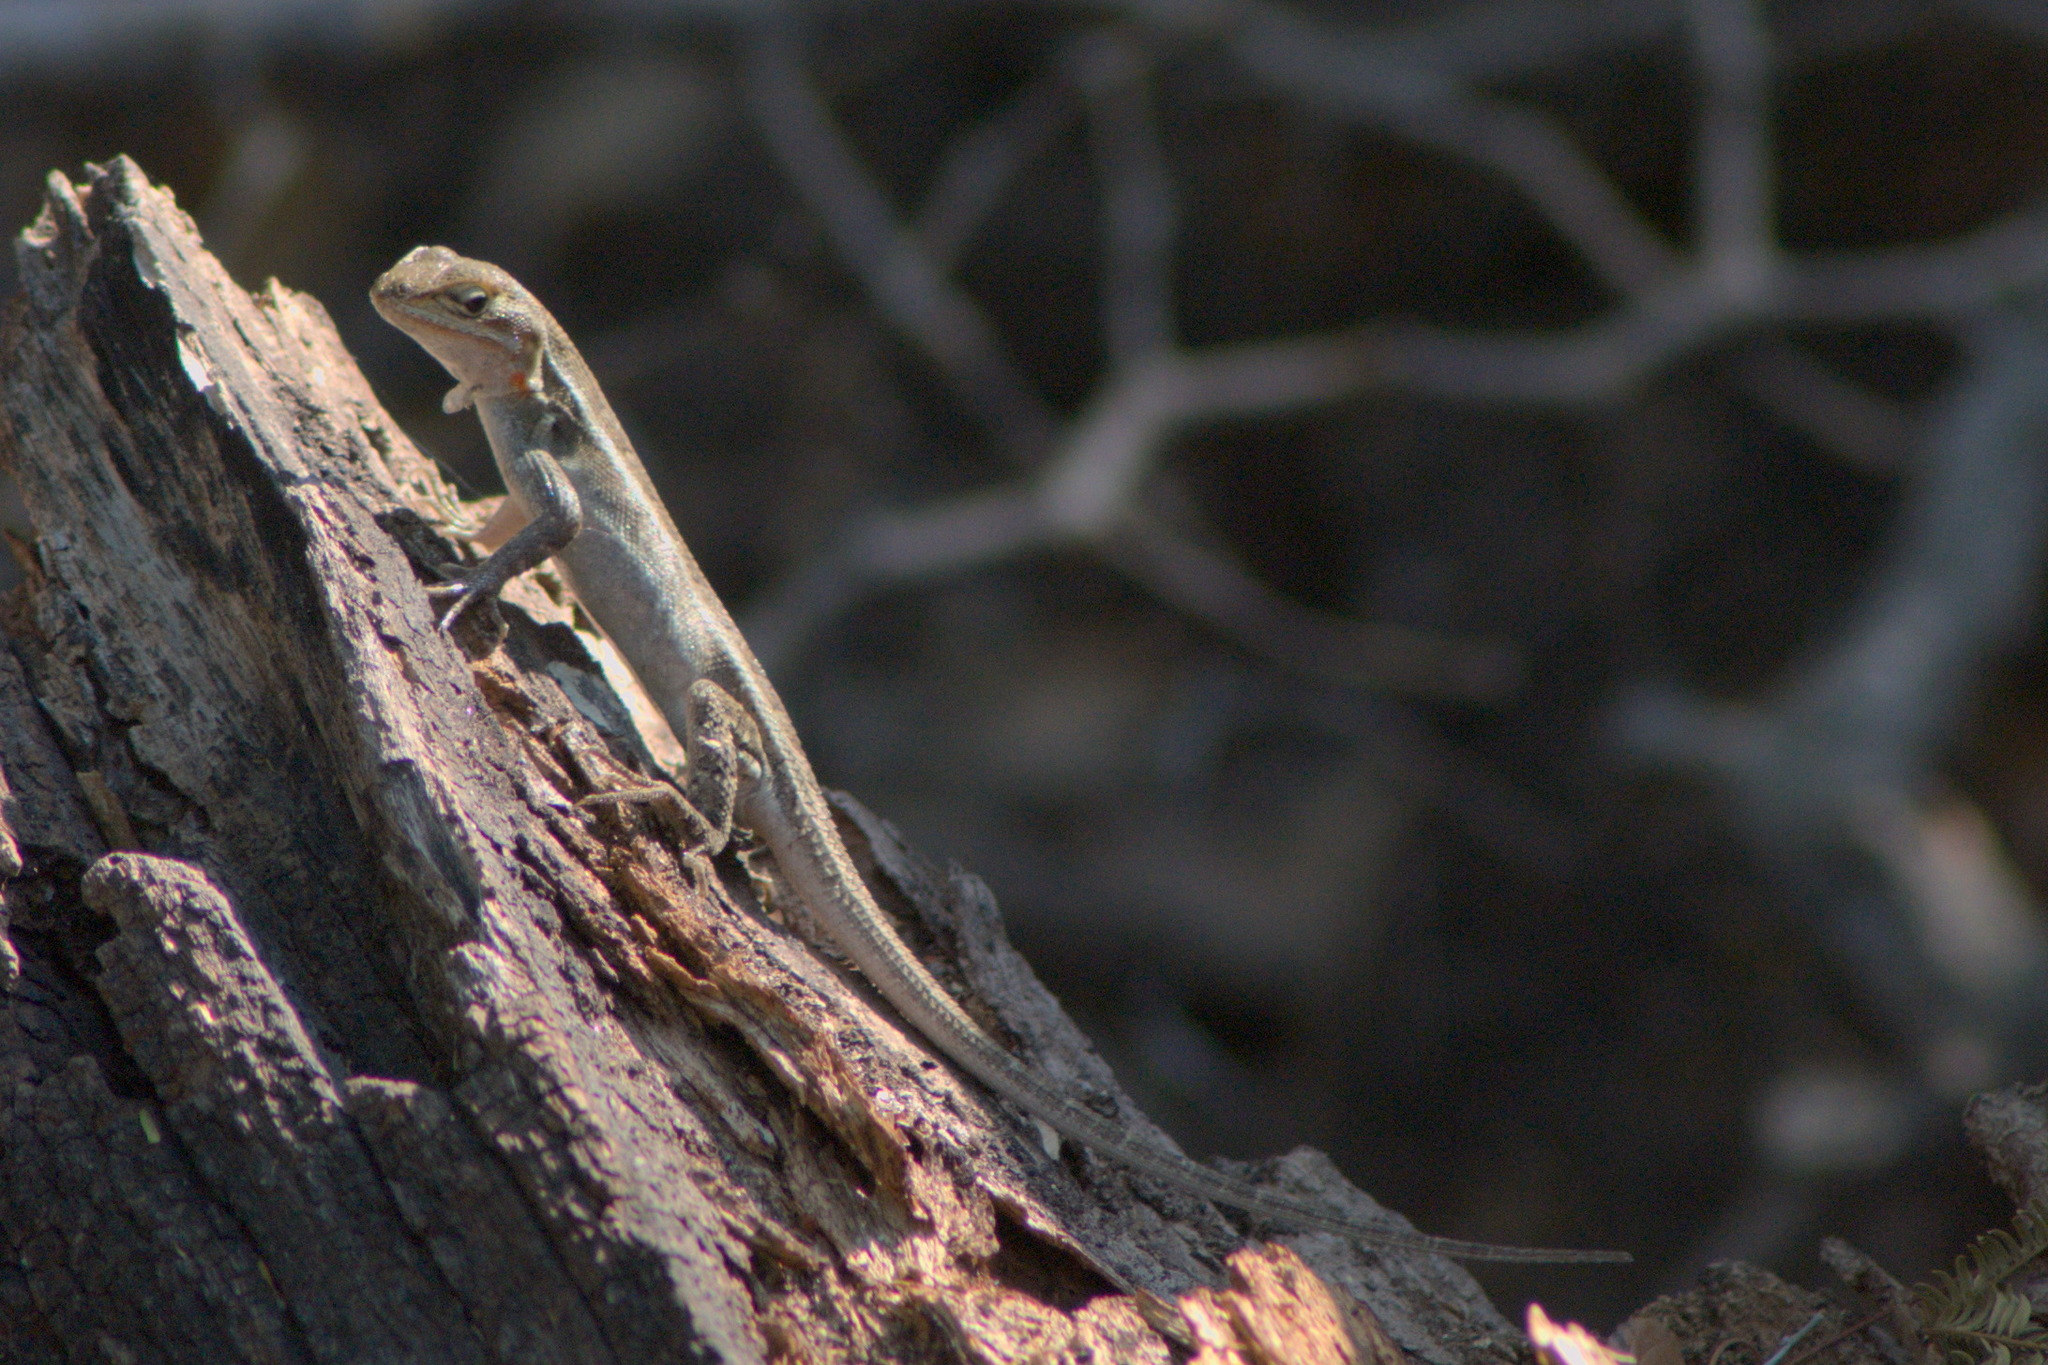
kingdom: Animalia
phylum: Chordata
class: Squamata
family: Phrynosomatidae
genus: Sceloporus
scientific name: Sceloporus variabilis
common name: Rosebelly lizard
